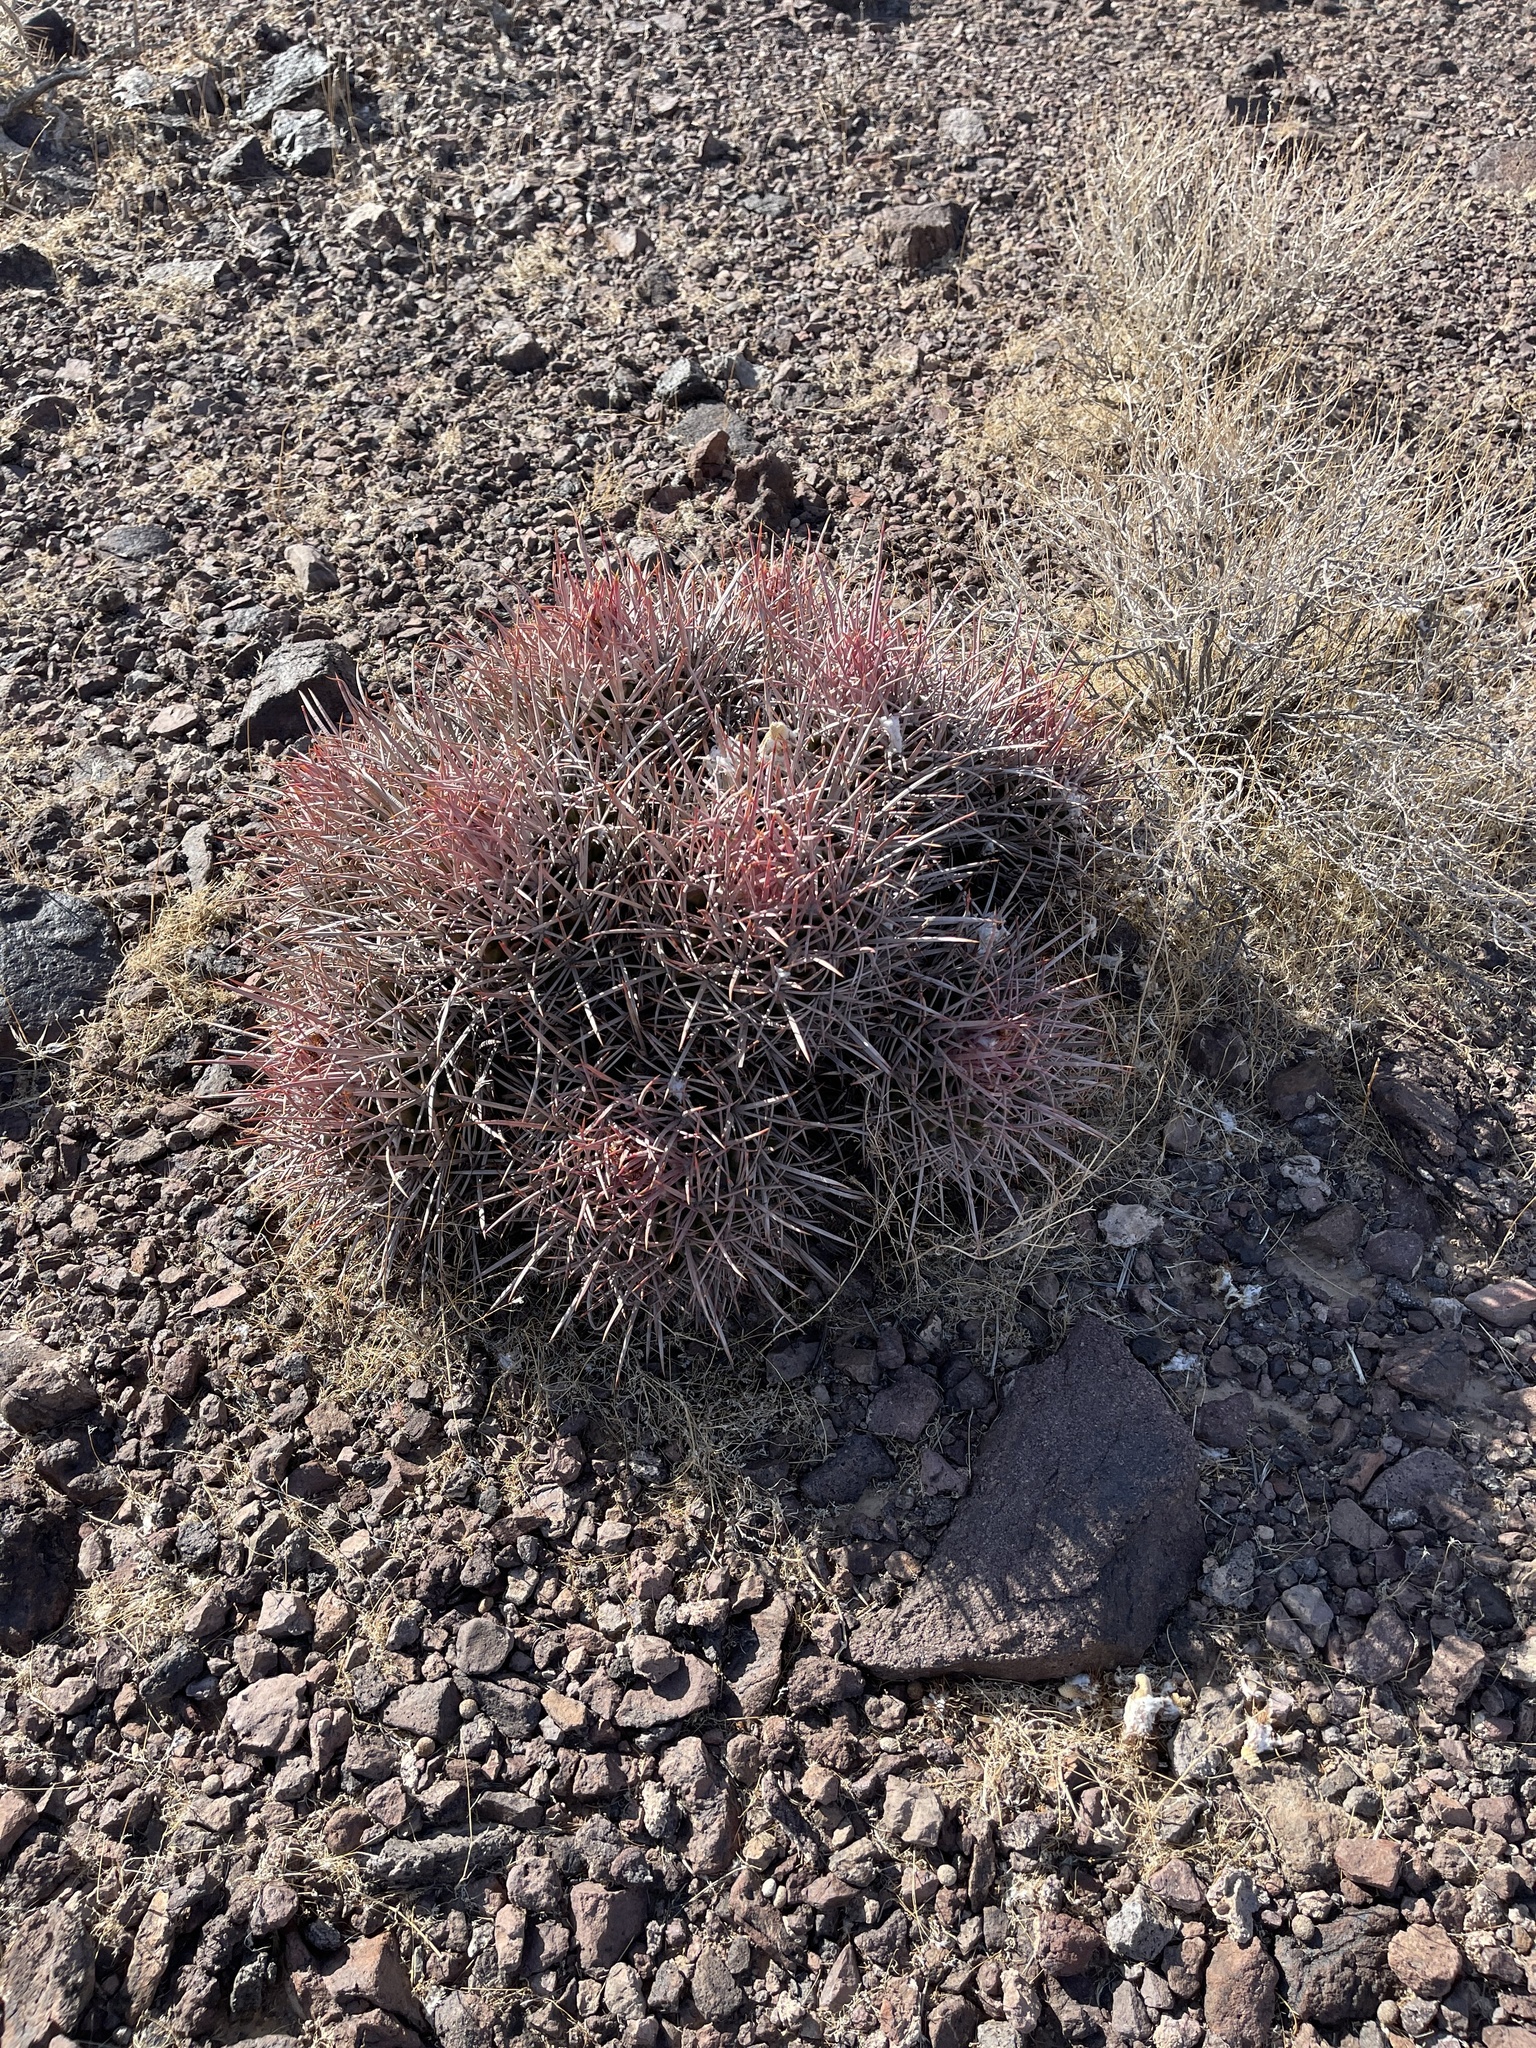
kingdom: Plantae
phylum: Tracheophyta
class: Magnoliopsida
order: Caryophyllales
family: Cactaceae
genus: Echinocactus
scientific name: Echinocactus polycephalus
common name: Cottontop cactus
